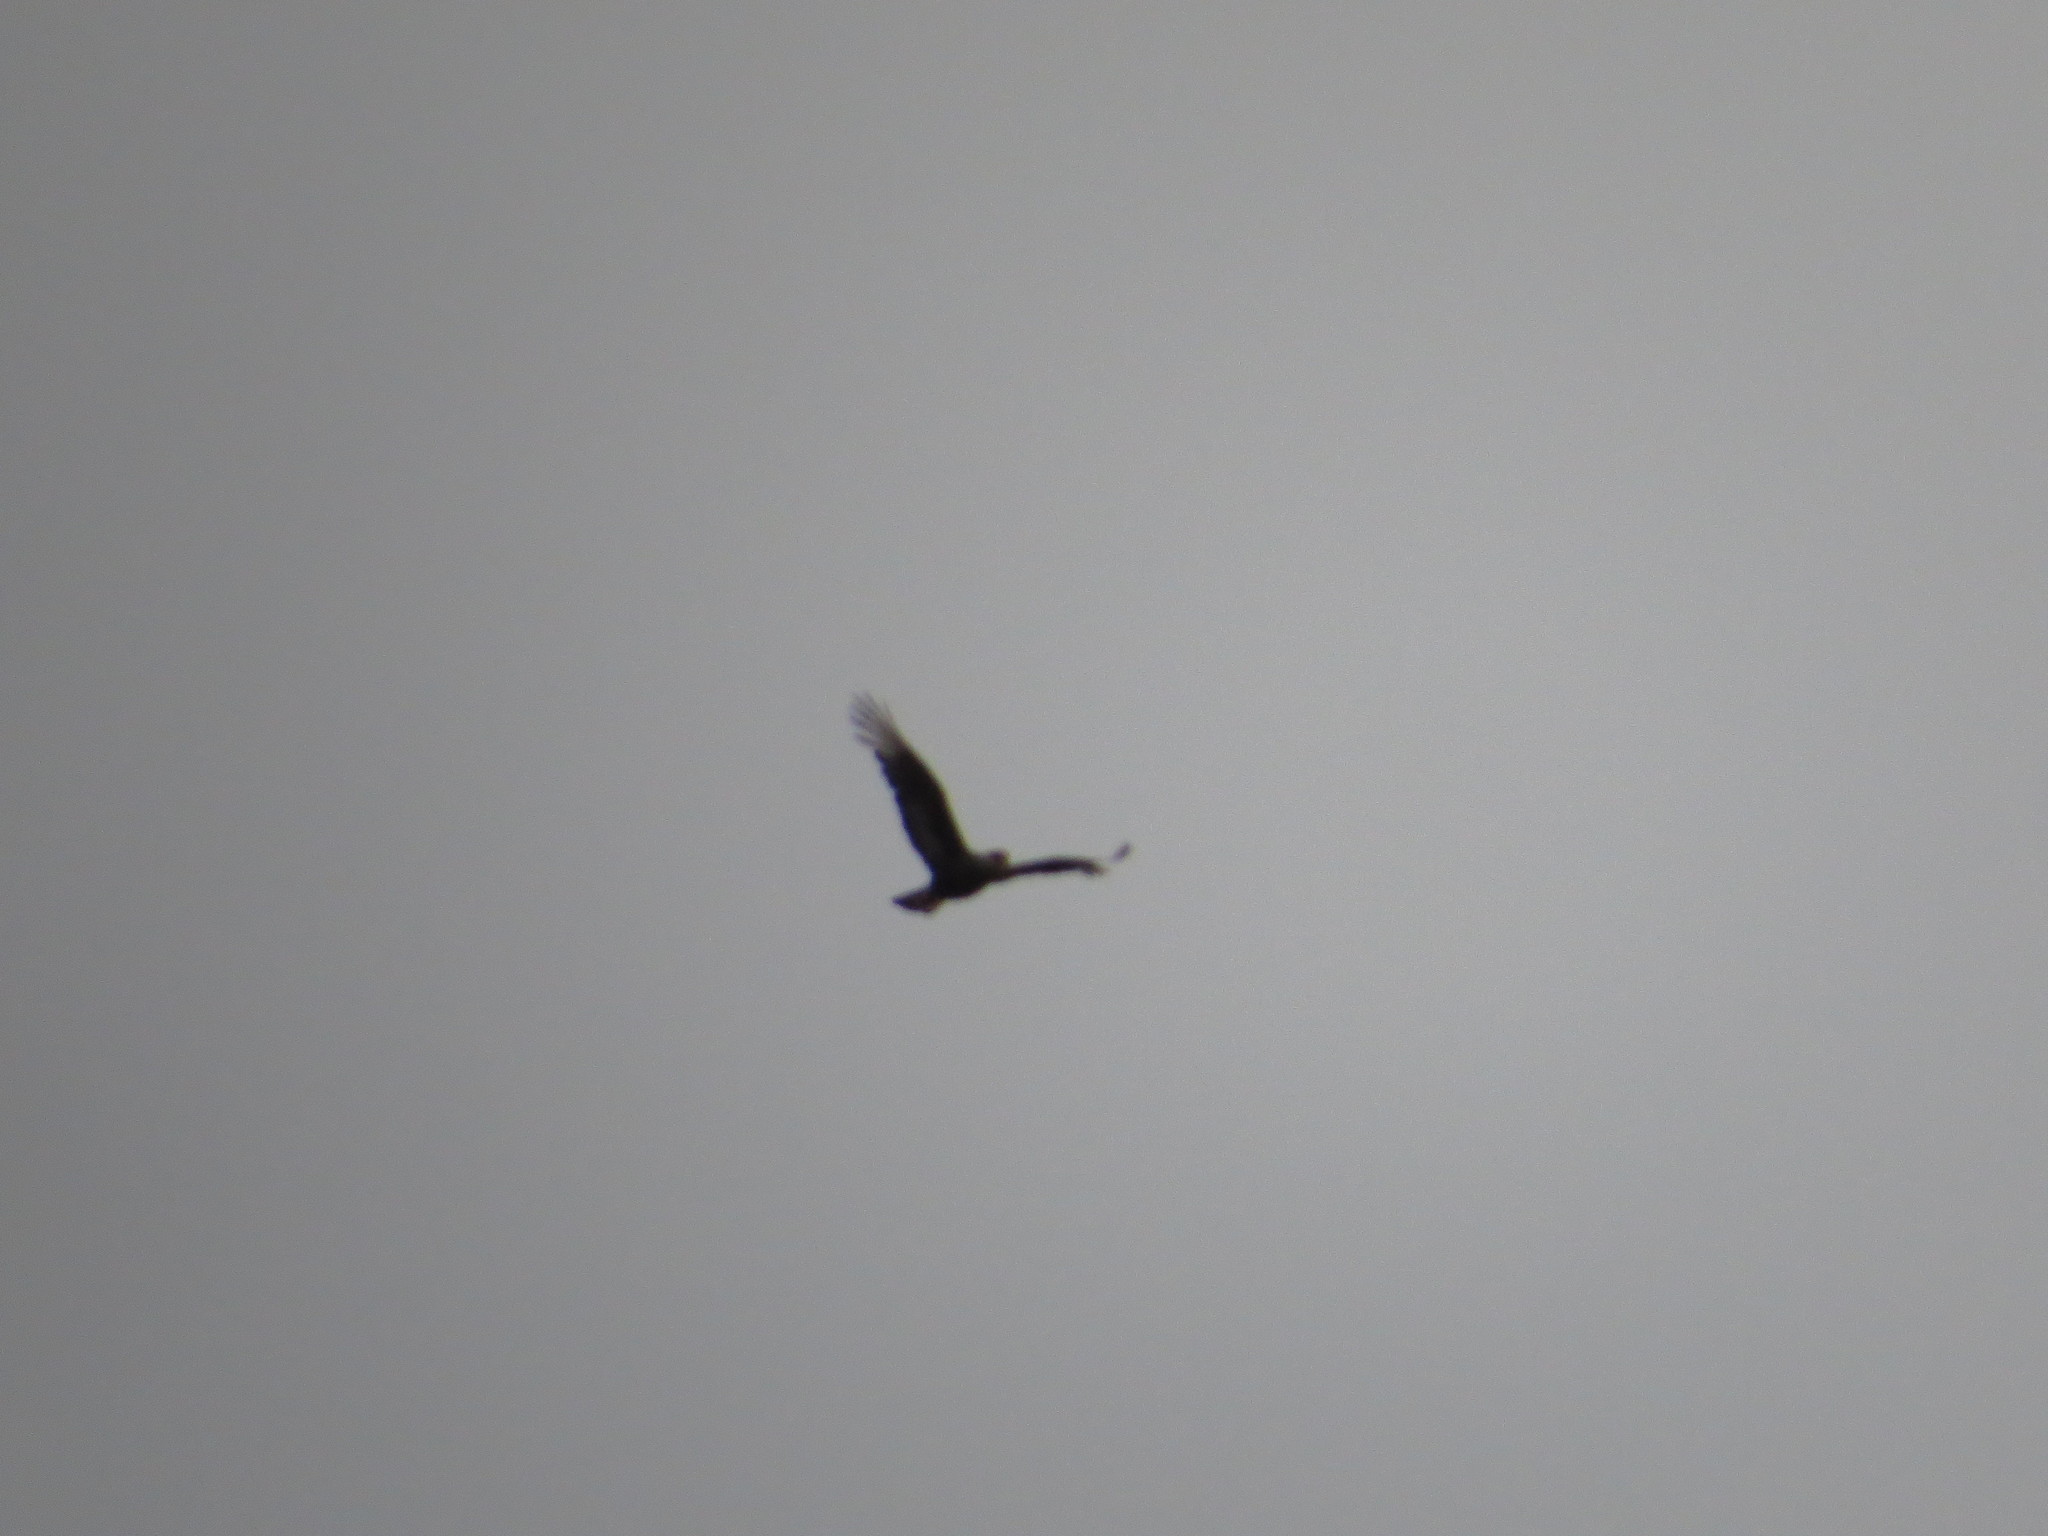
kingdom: Animalia
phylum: Chordata
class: Aves
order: Falconiformes
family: Falconidae
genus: Caracara
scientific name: Caracara plancus
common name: Southern caracara
